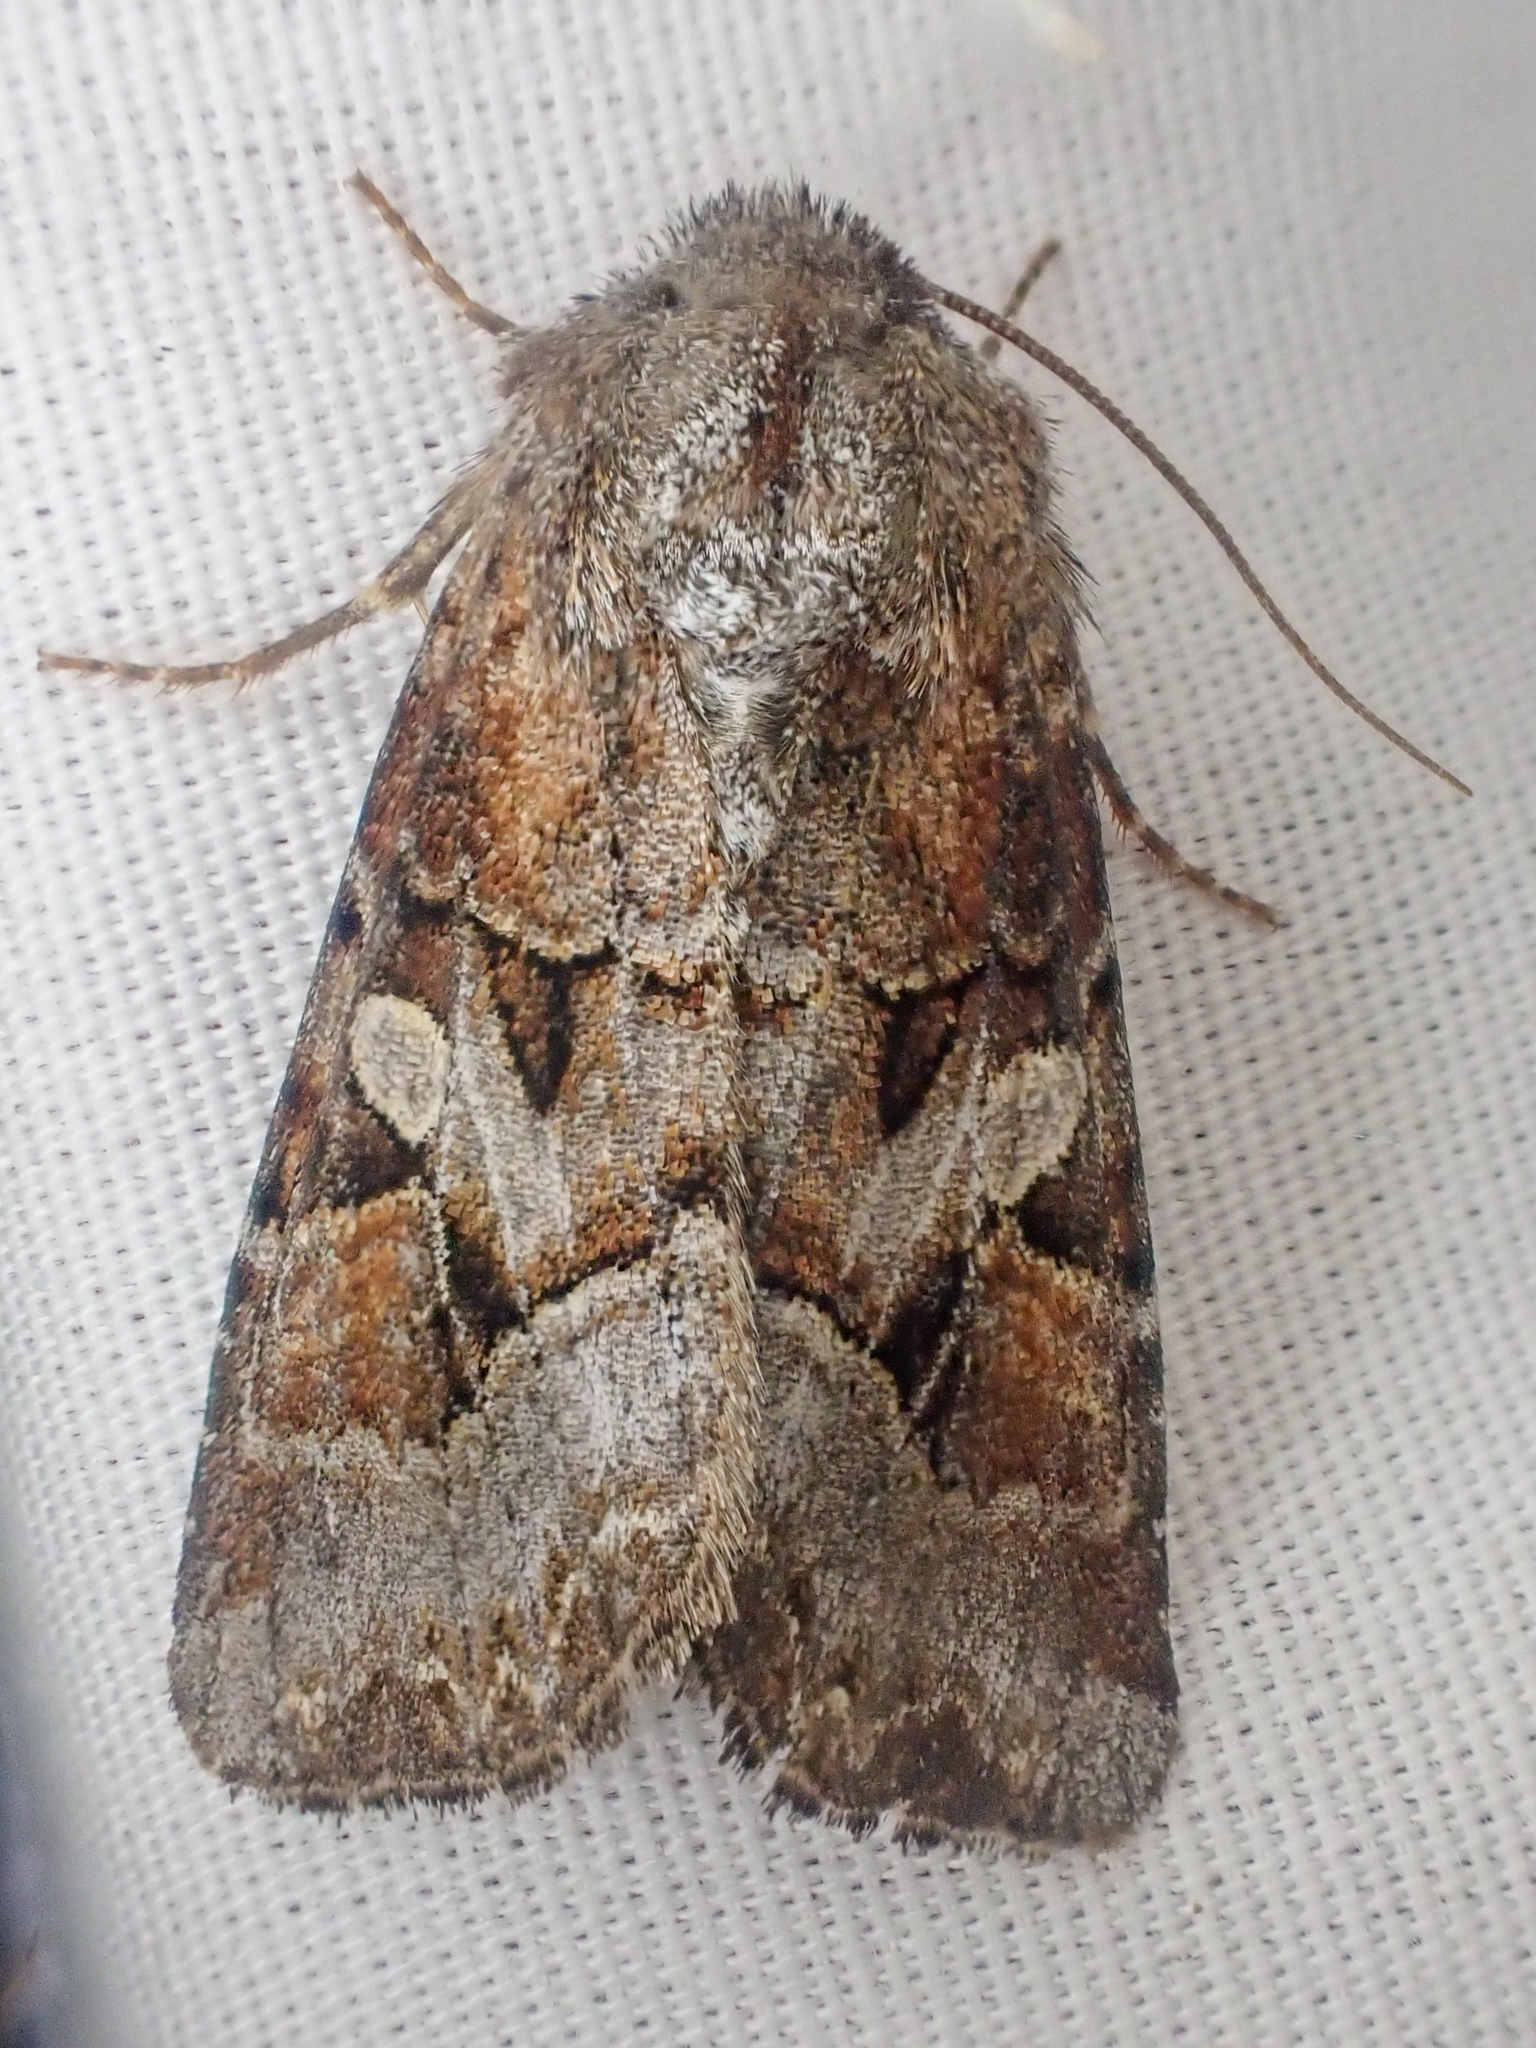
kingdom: Animalia
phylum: Arthropoda
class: Insecta
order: Lepidoptera
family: Noctuidae
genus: Trichordestra
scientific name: Trichordestra liquida
